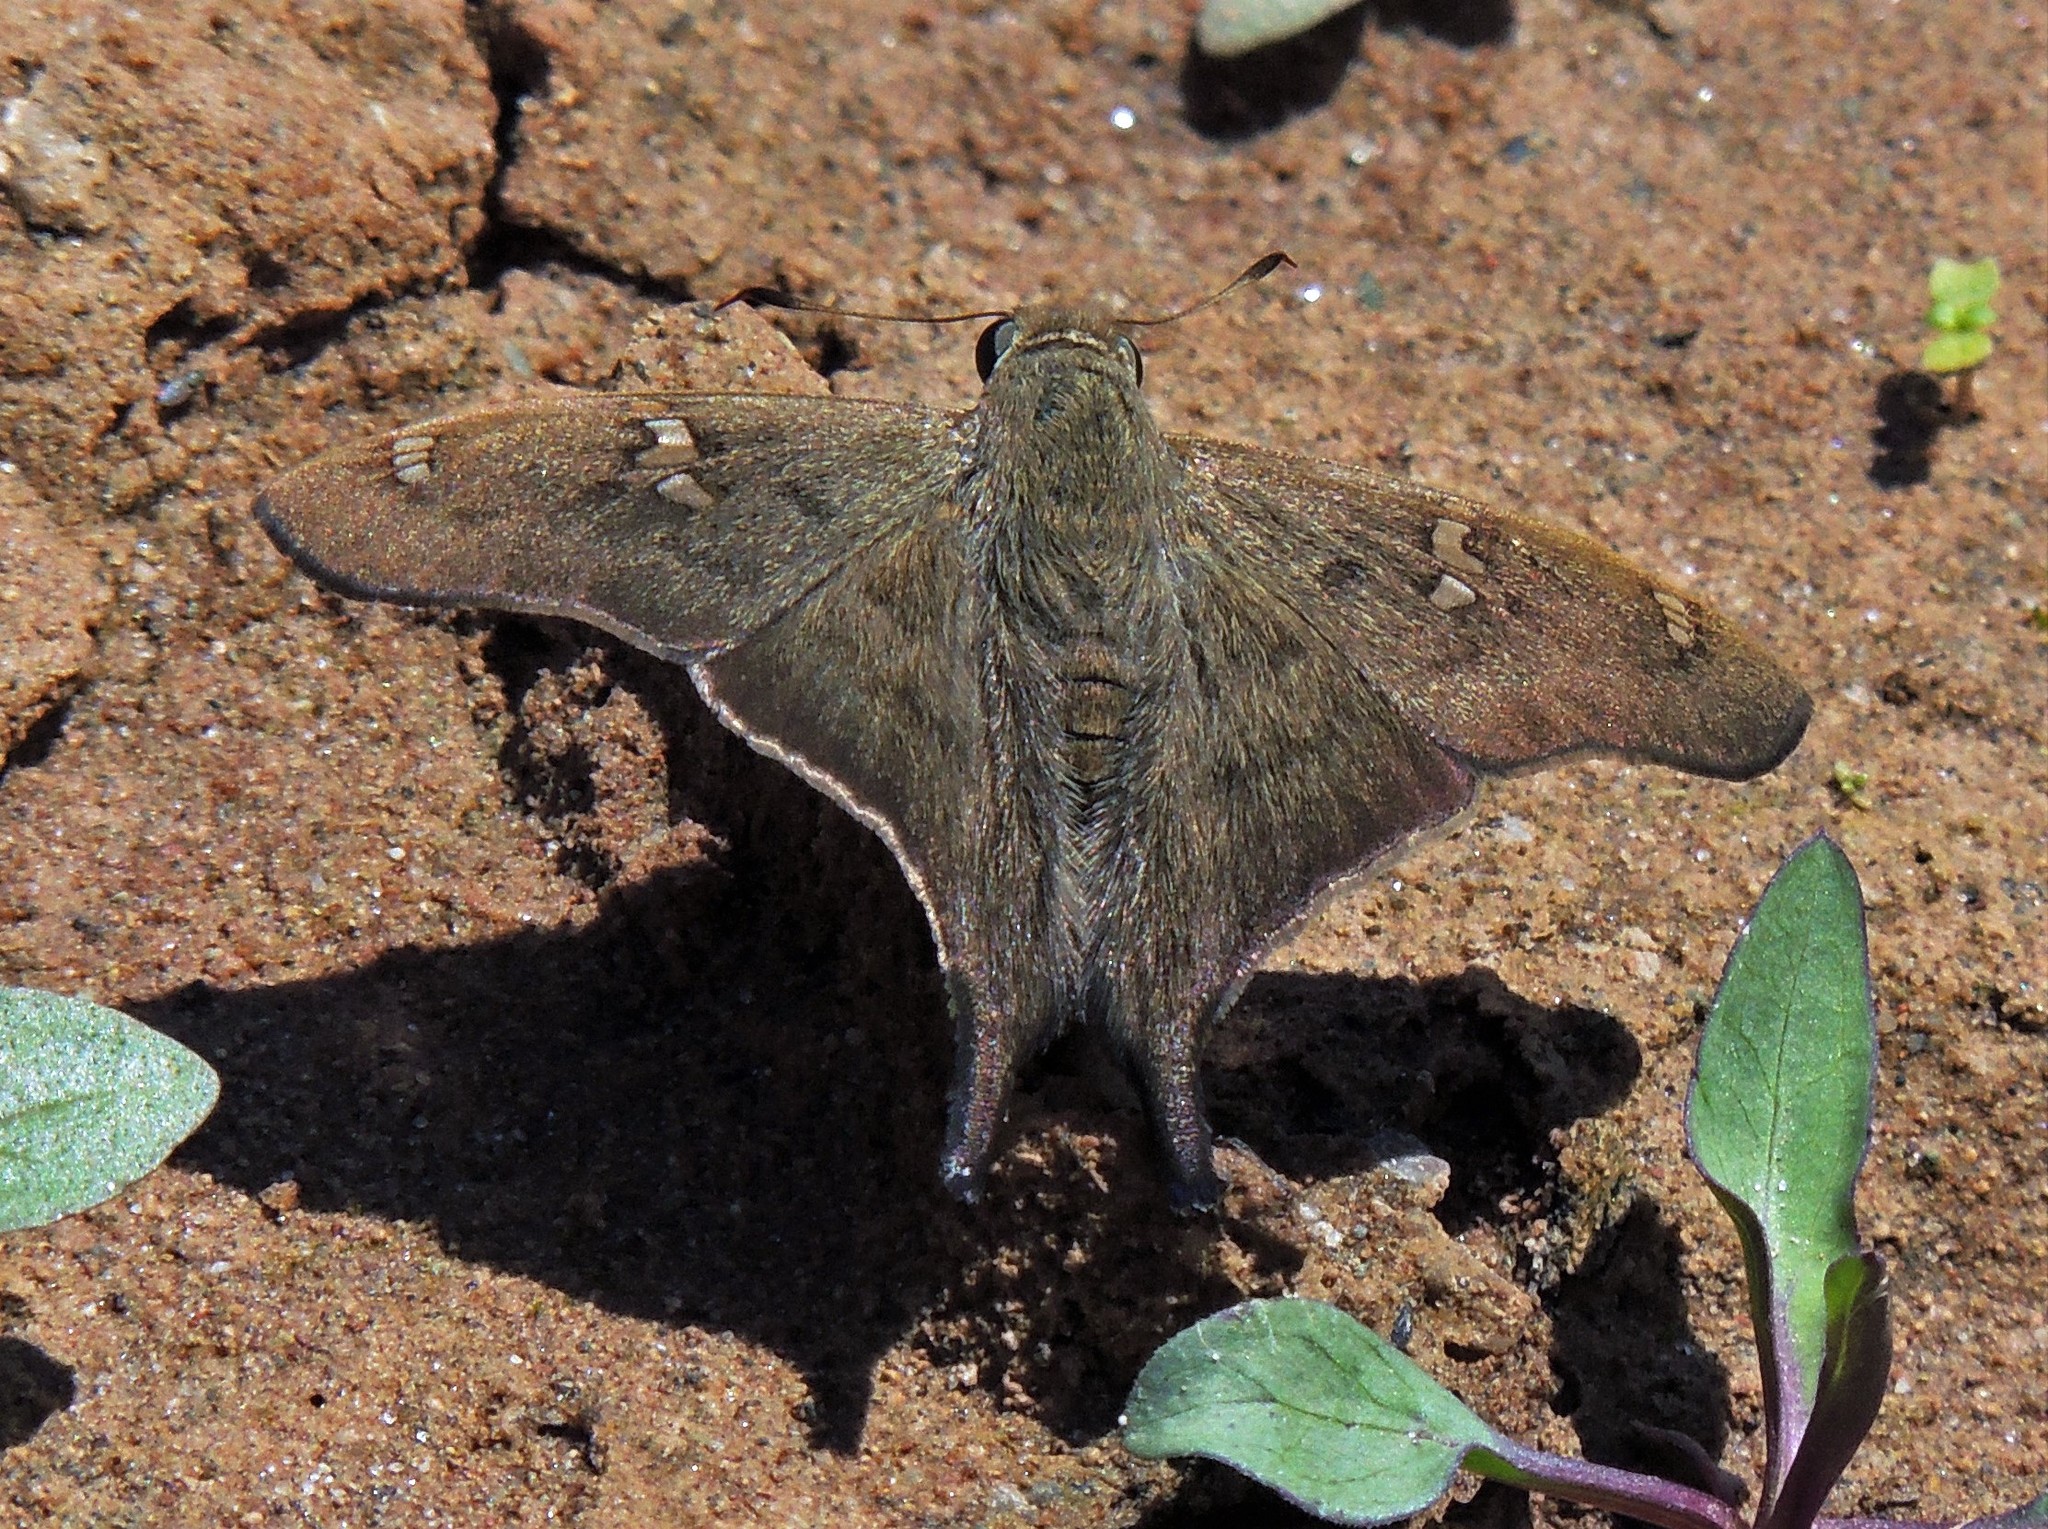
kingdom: Animalia
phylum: Arthropoda
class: Insecta
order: Lepidoptera
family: Hesperiidae
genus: Polythrix
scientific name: Polythrix octomaculata
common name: Eight-spotted longtail
